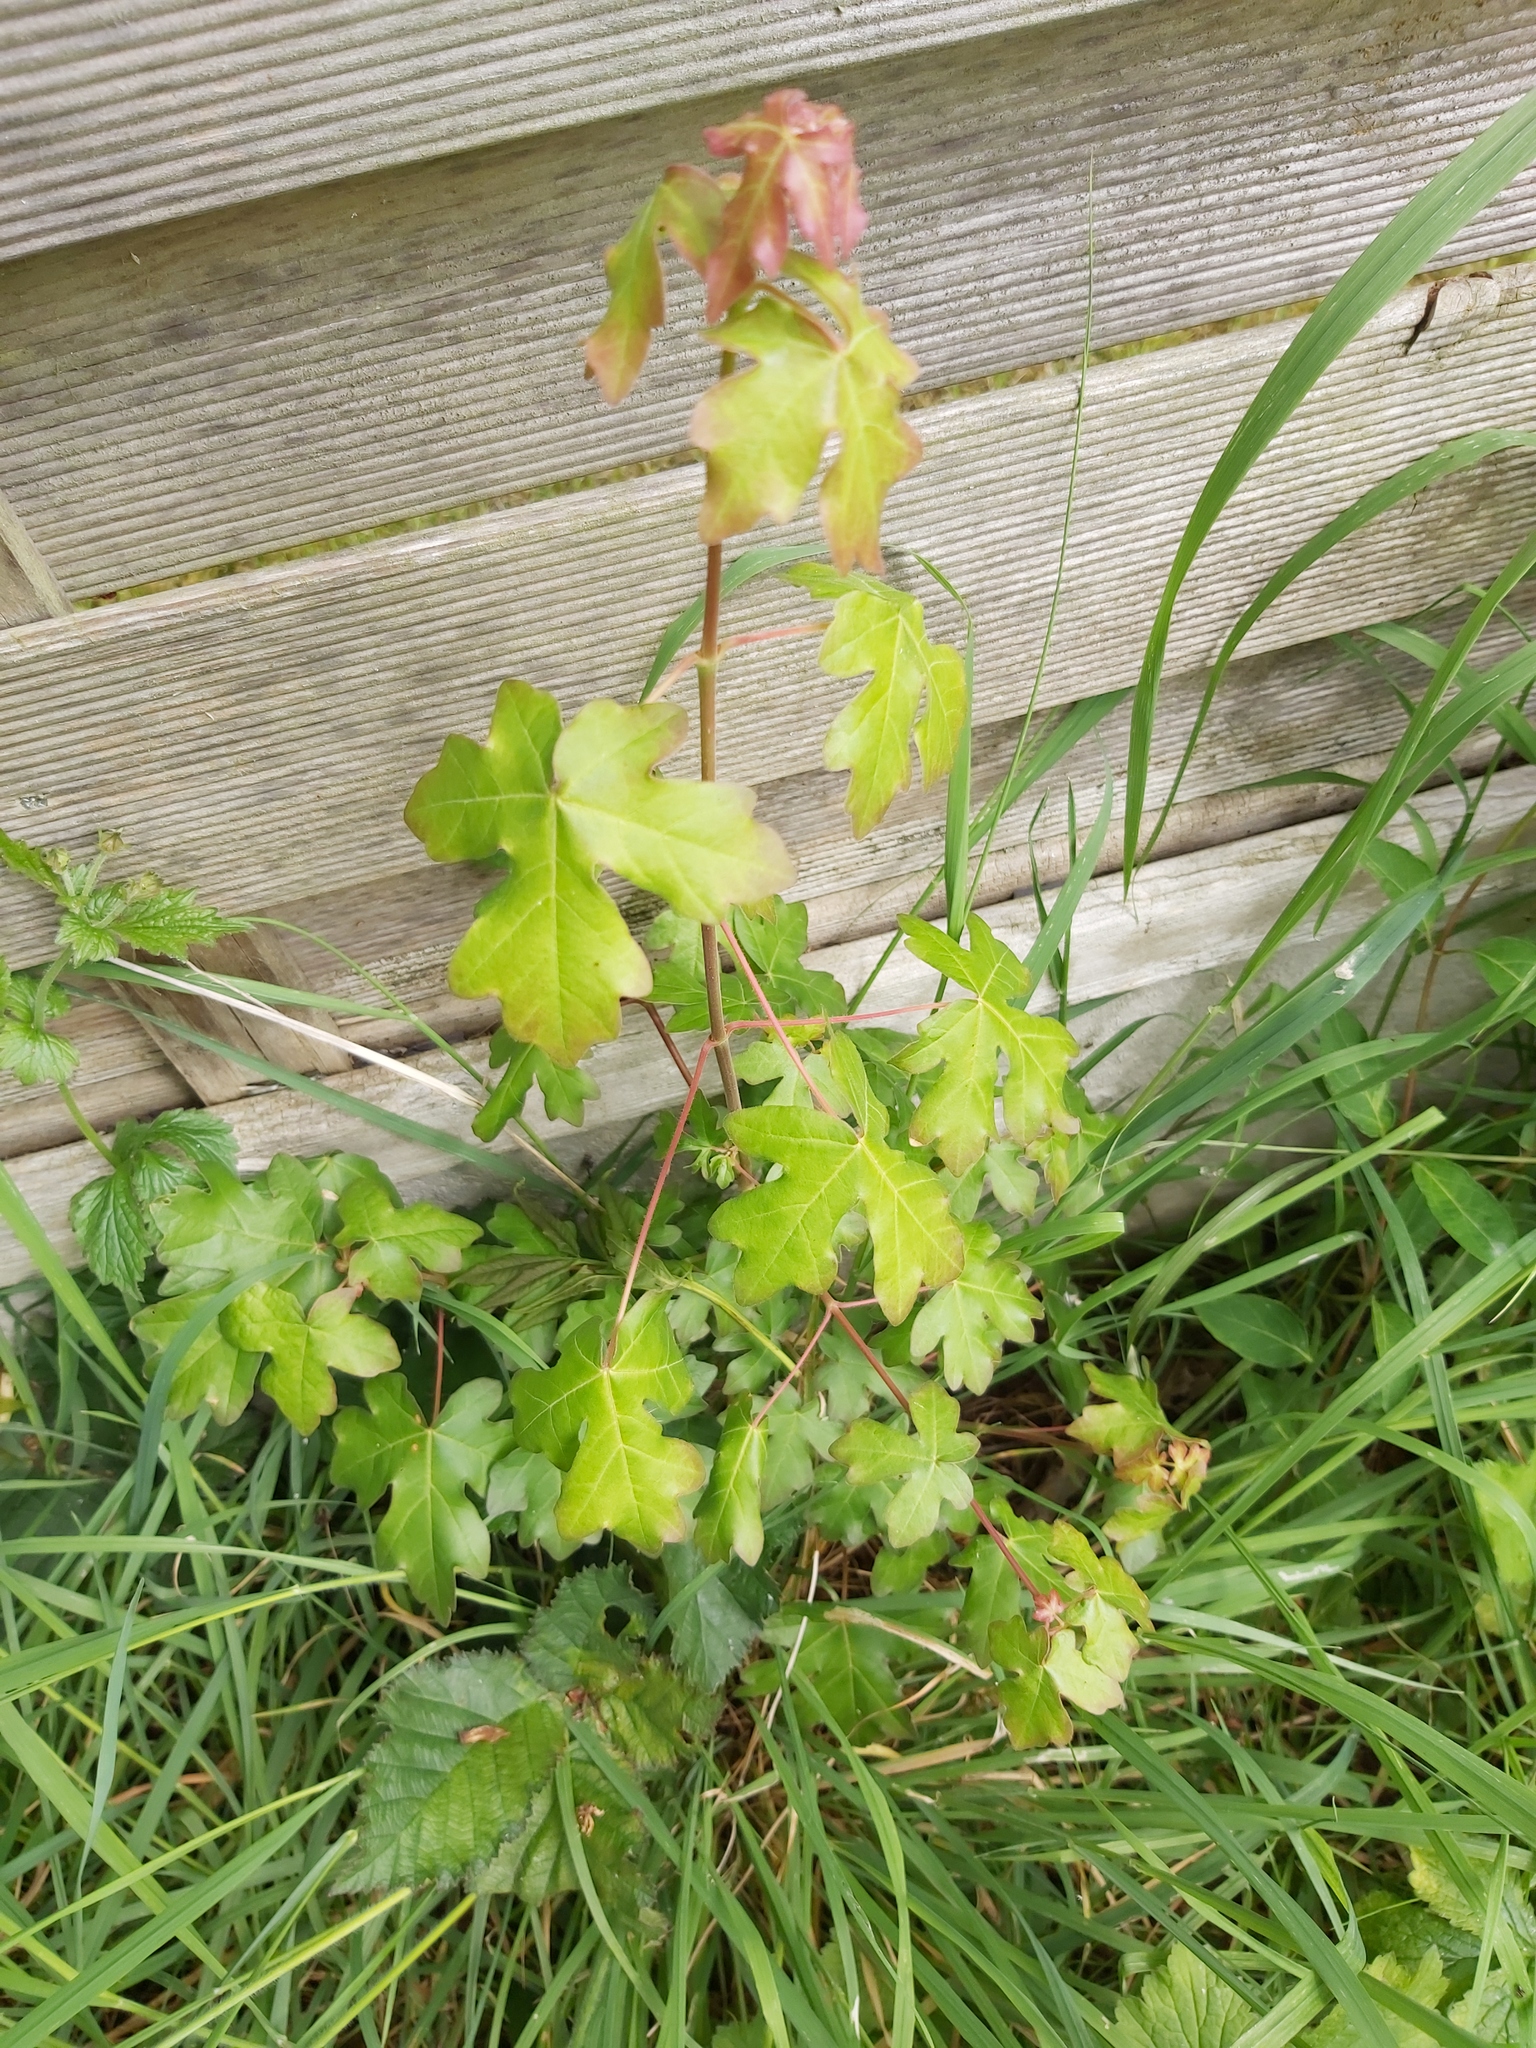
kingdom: Plantae
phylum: Tracheophyta
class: Magnoliopsida
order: Sapindales
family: Sapindaceae
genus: Acer
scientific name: Acer campestre
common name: Field maple
